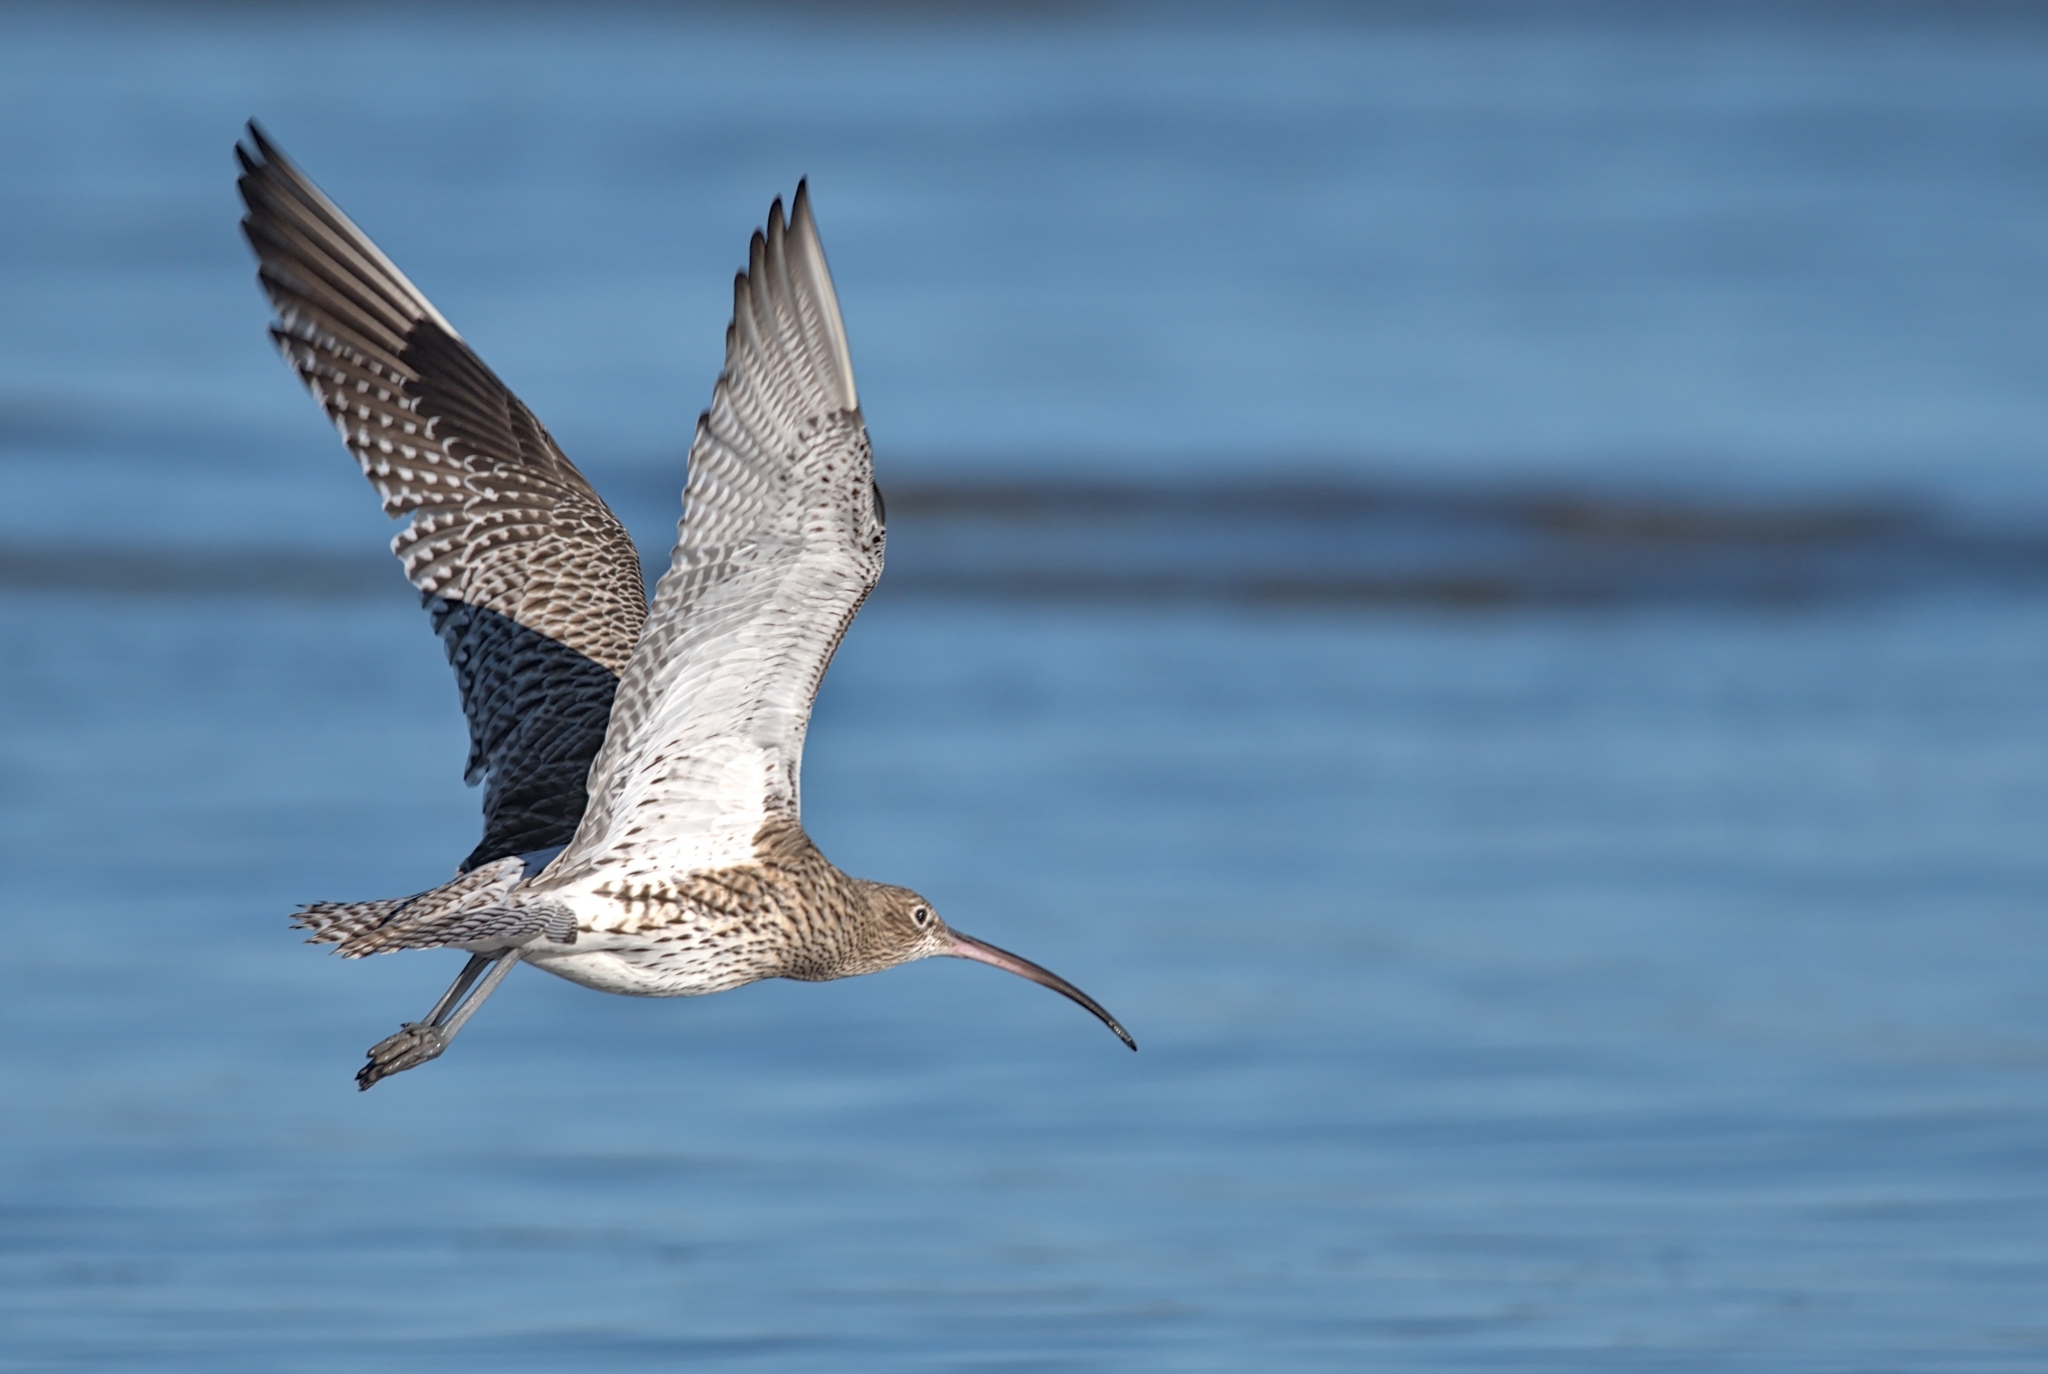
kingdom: Animalia
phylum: Chordata
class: Aves
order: Charadriiformes
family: Scolopacidae
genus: Numenius
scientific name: Numenius arquata
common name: Eurasian curlew
